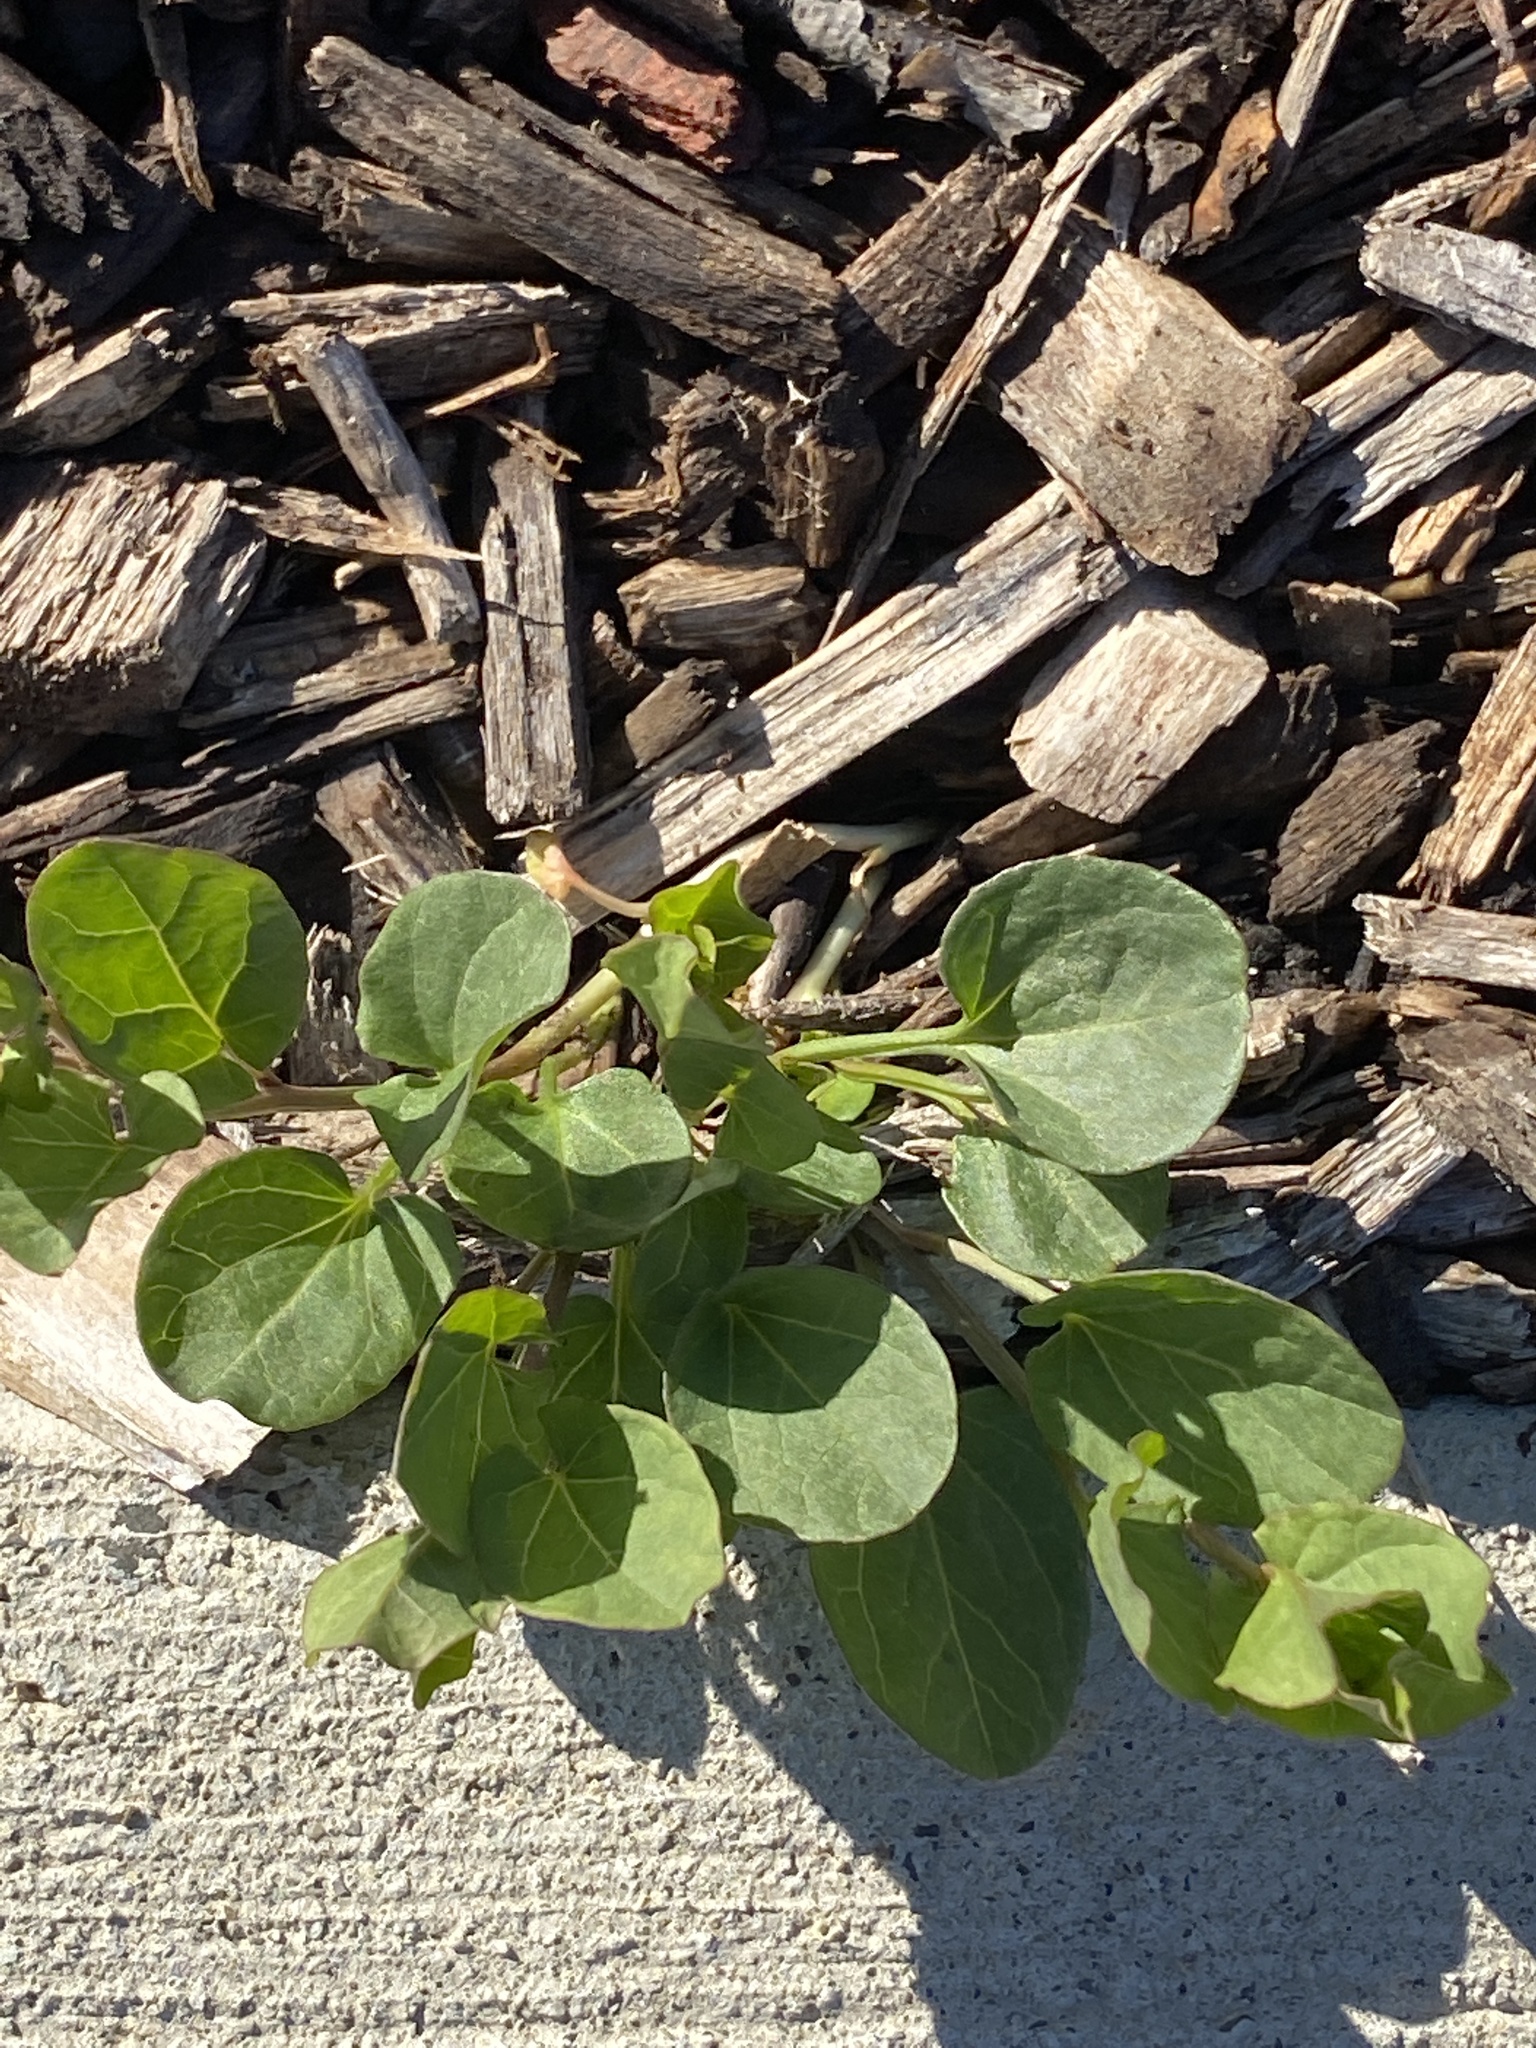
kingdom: Plantae
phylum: Tracheophyta
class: Magnoliopsida
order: Solanales
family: Convolvulaceae
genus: Convolvulus
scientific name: Convolvulus arvensis
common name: Field bindweed
